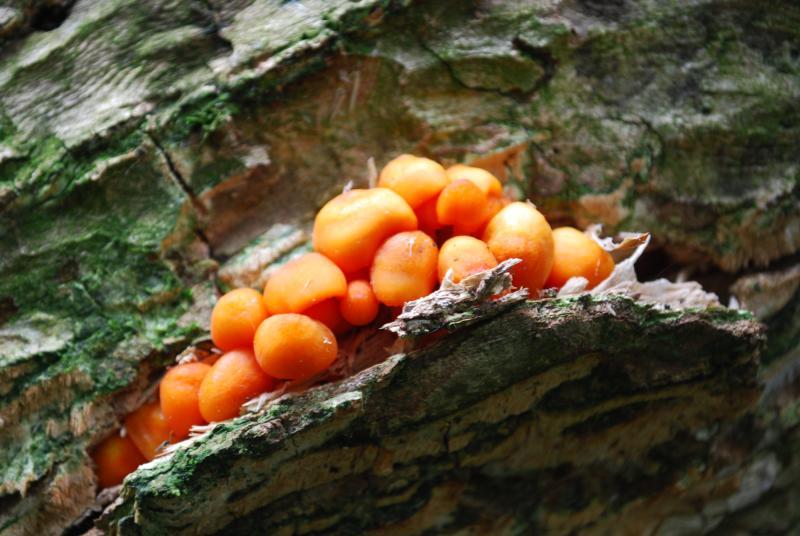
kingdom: Protozoa
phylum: Mycetozoa
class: Myxomycetes
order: Cribrariales
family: Tubiferaceae
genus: Lycogala
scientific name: Lycogala epidendrum
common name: Wolf's milk
